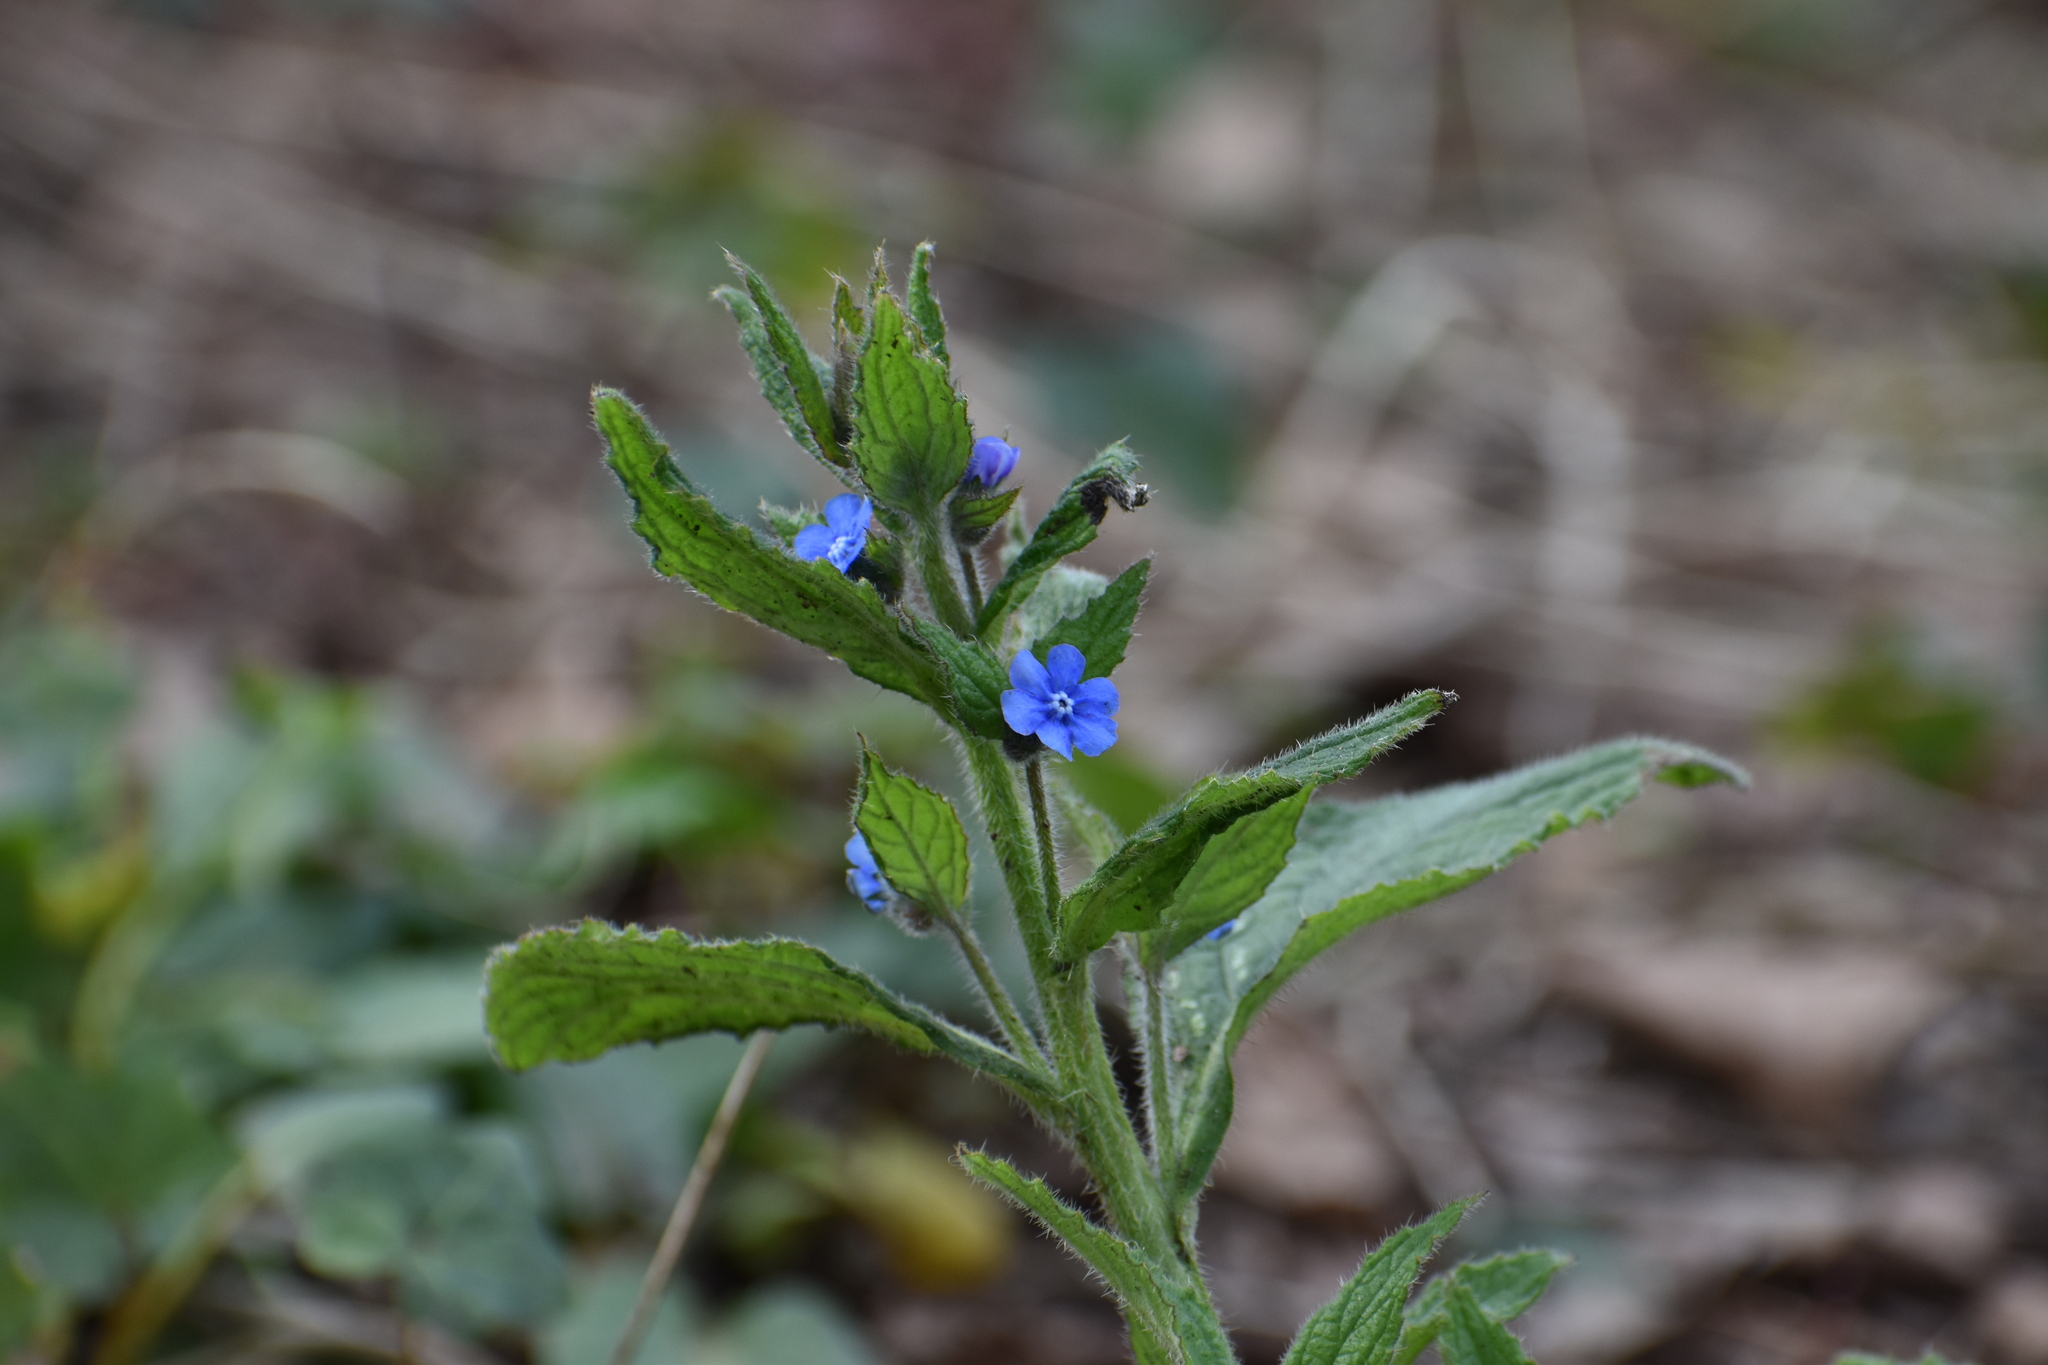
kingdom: Plantae
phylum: Tracheophyta
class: Magnoliopsida
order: Boraginales
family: Boraginaceae
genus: Pentaglottis
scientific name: Pentaglottis sempervirens
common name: Green alkanet
